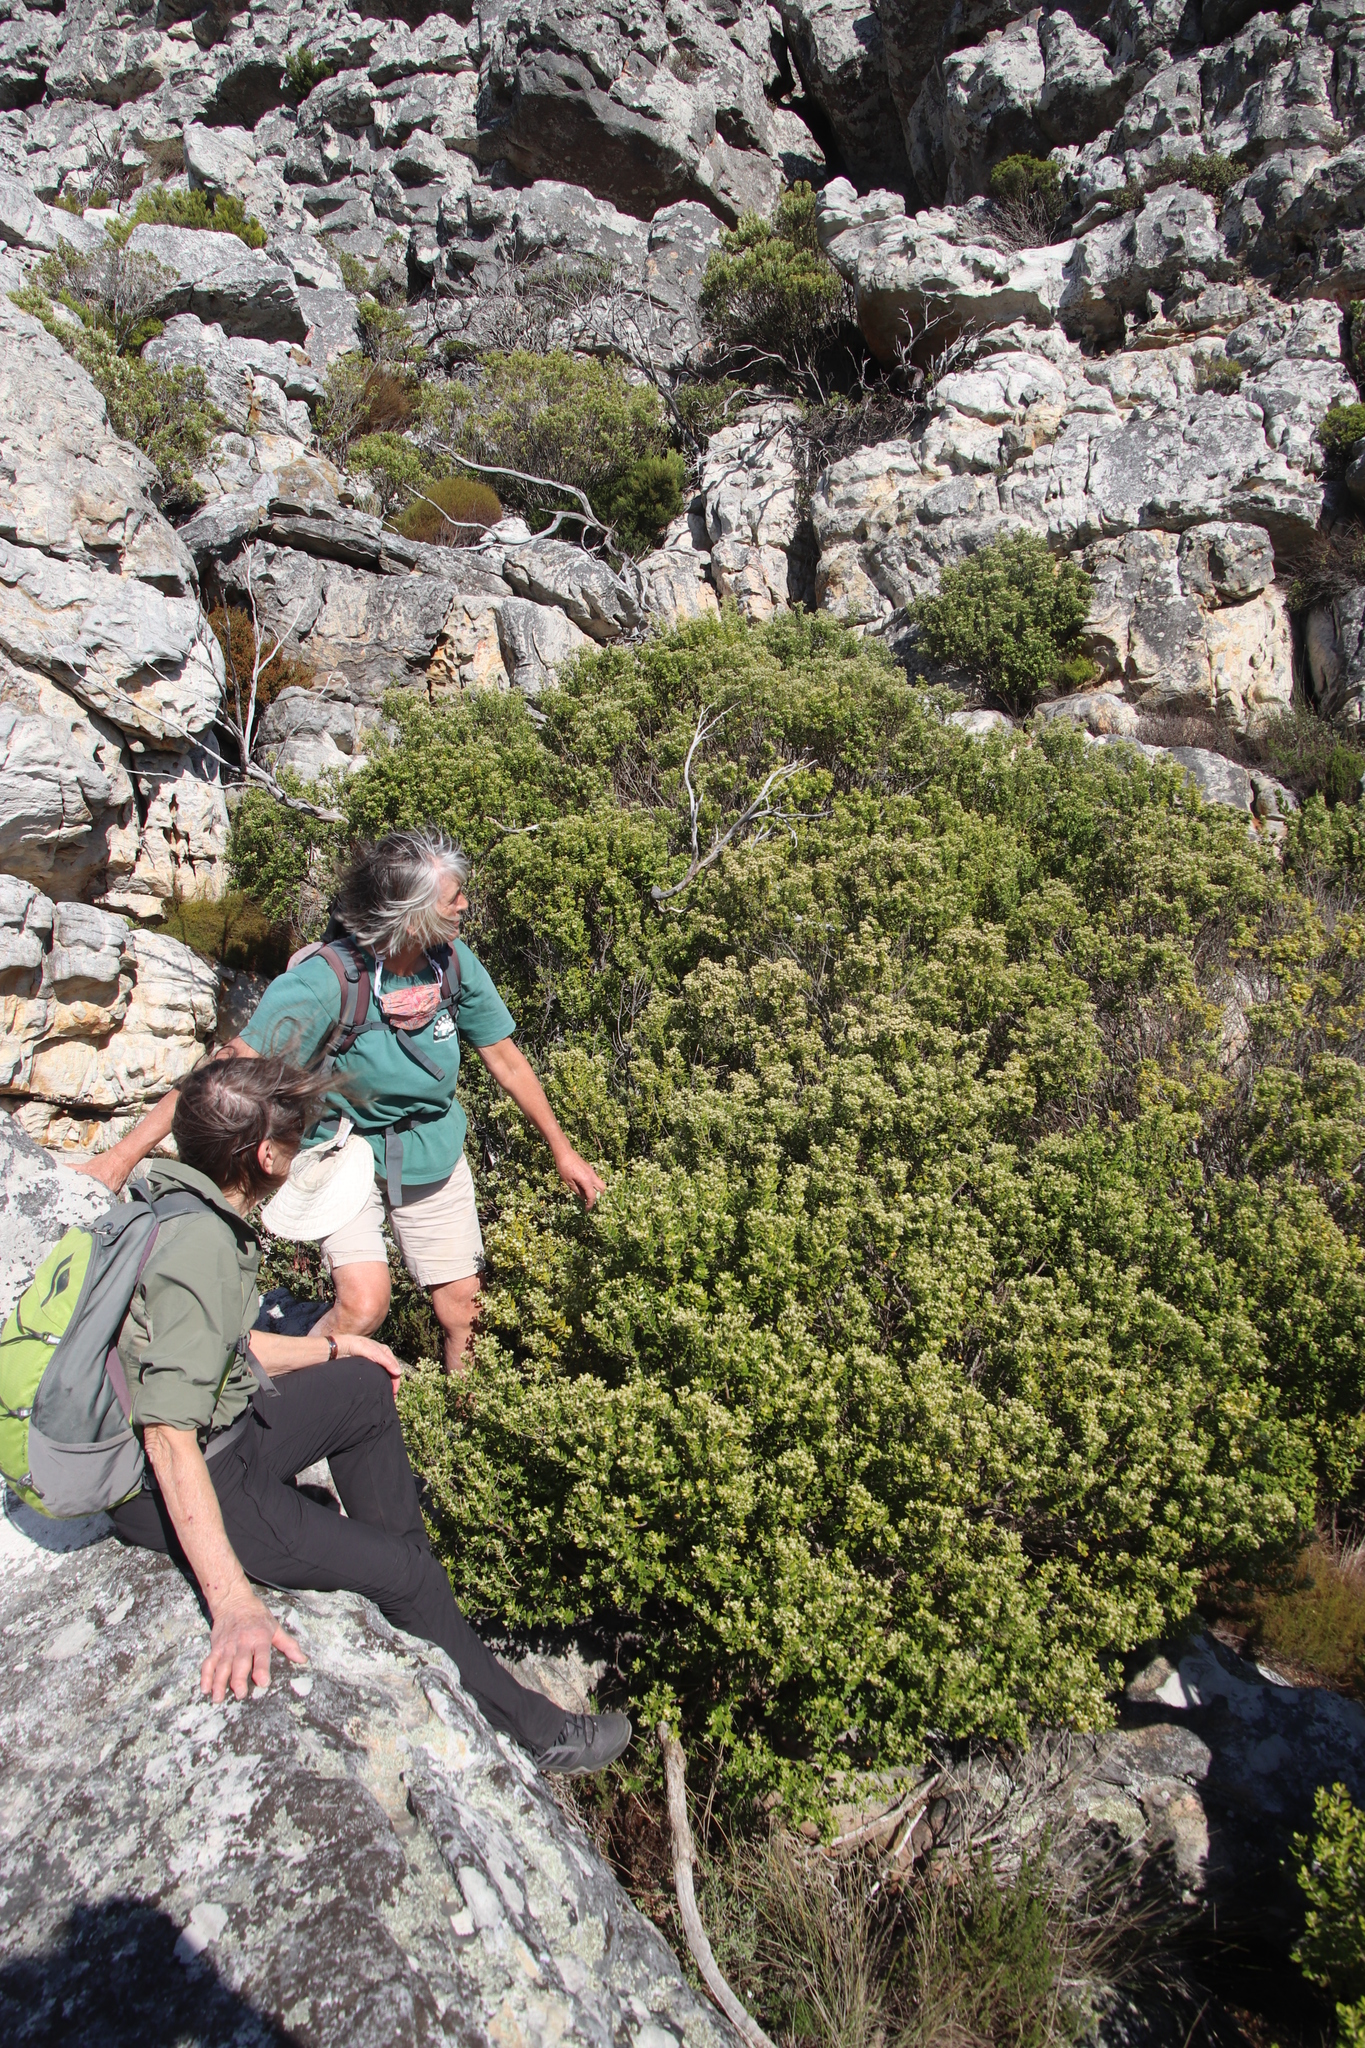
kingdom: Plantae
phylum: Tracheophyta
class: Magnoliopsida
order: Rosales
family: Rhamnaceae
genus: Phylica
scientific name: Phylica buxifolia
